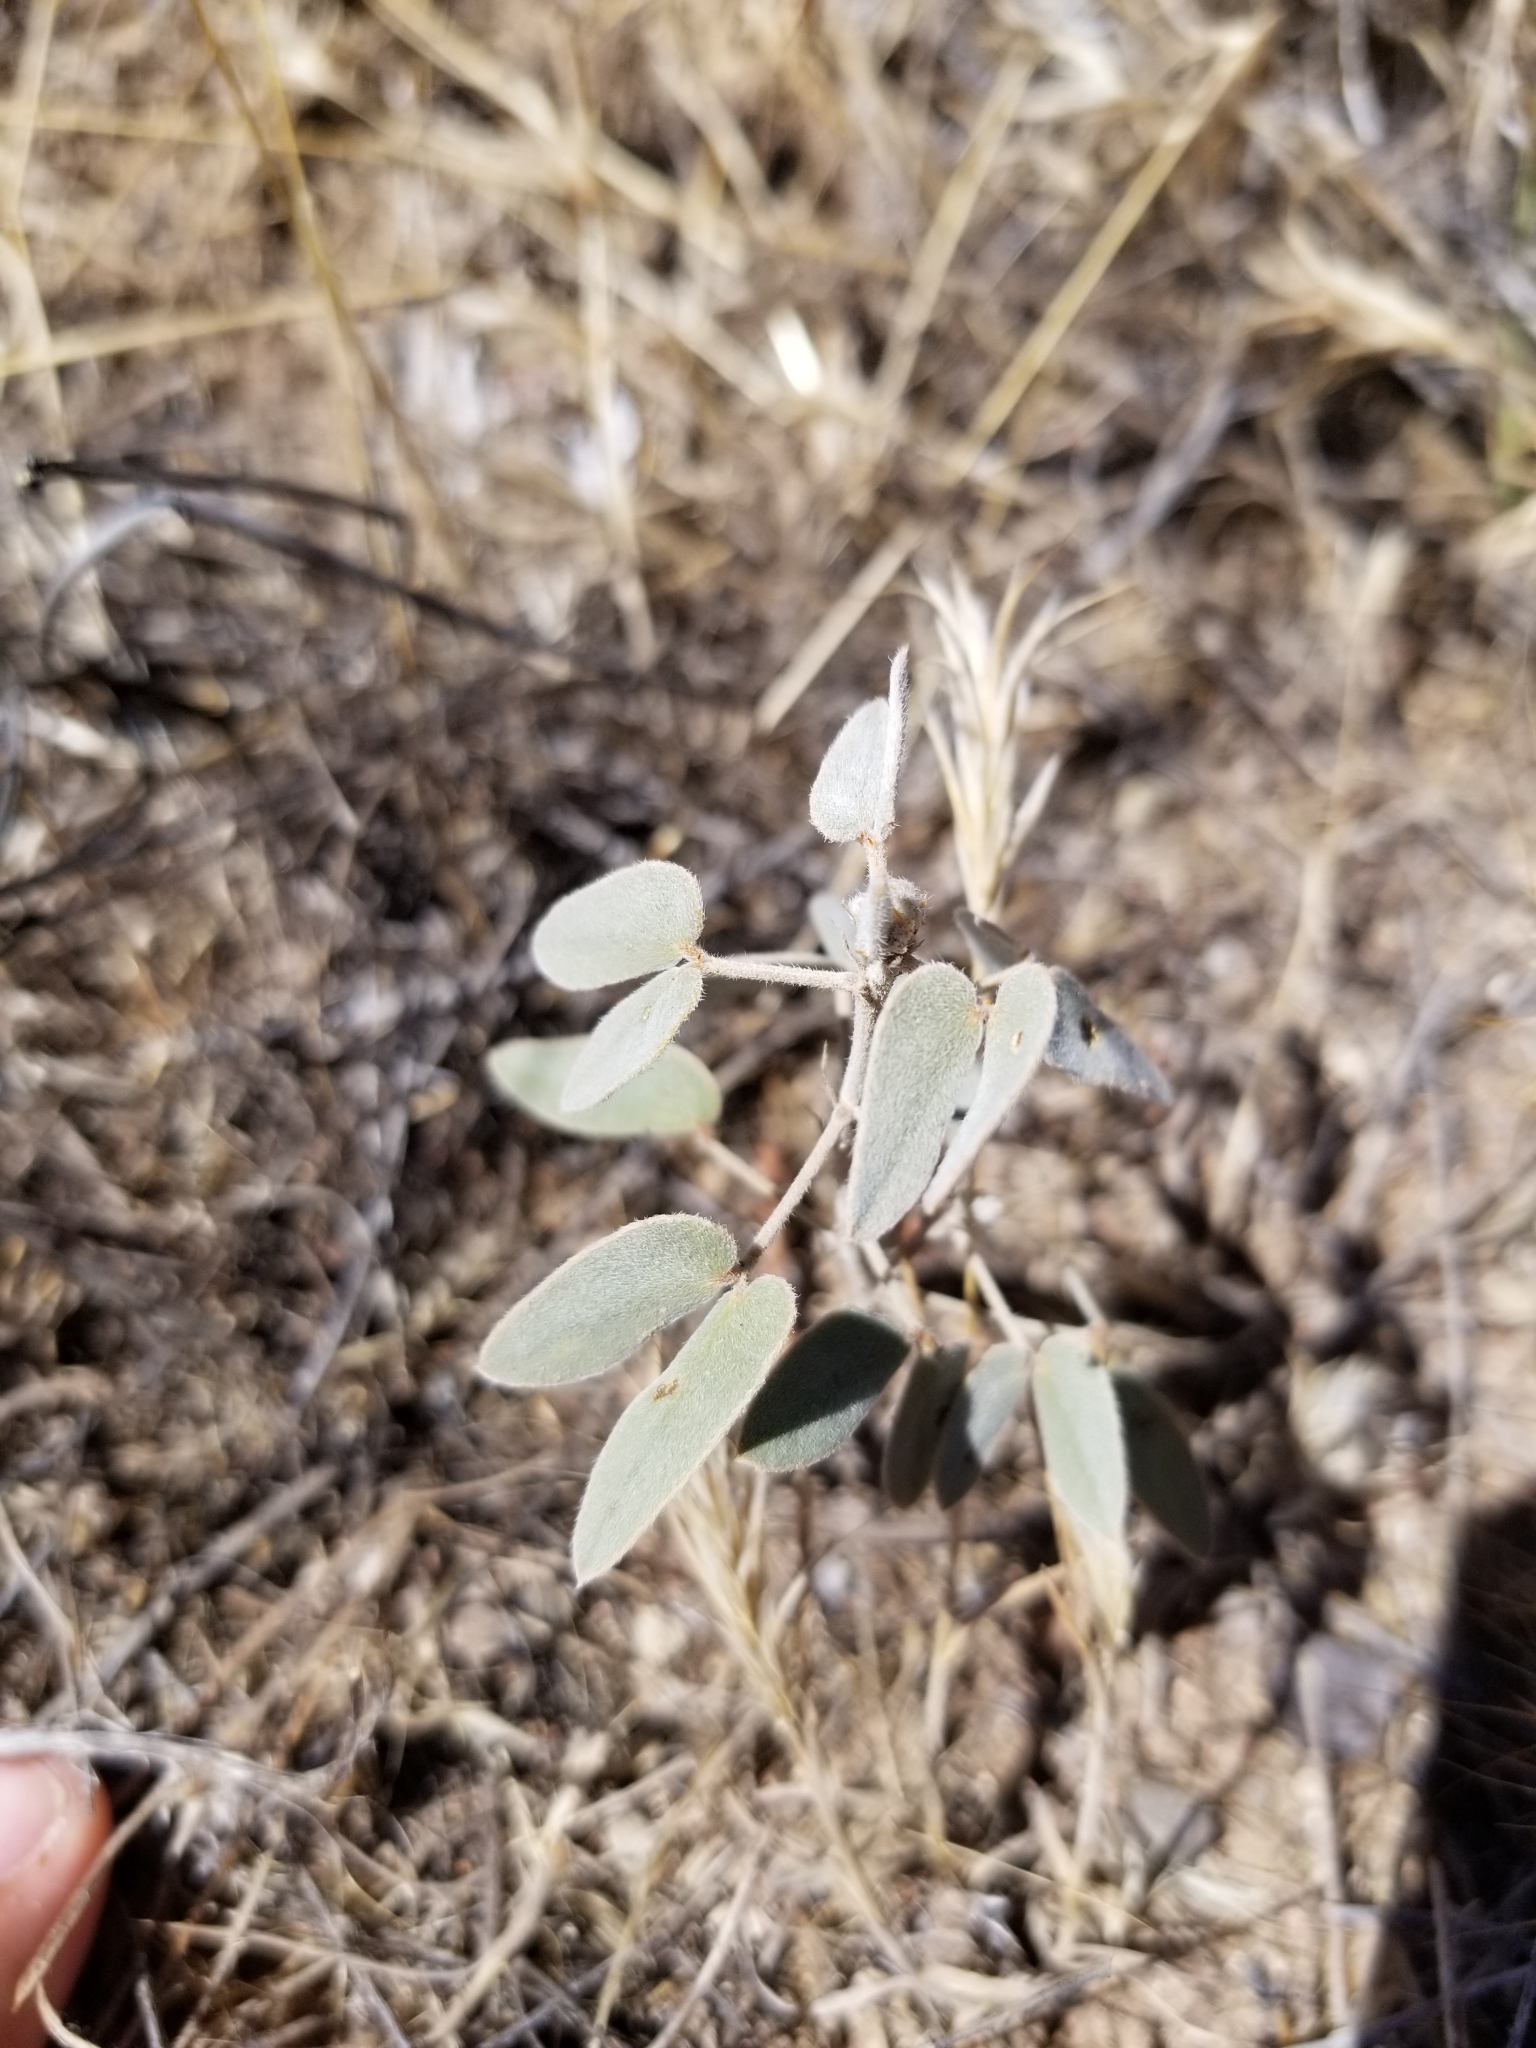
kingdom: Plantae
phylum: Tracheophyta
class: Magnoliopsida
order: Fabales
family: Fabaceae
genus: Senna
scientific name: Senna bauhinioides
